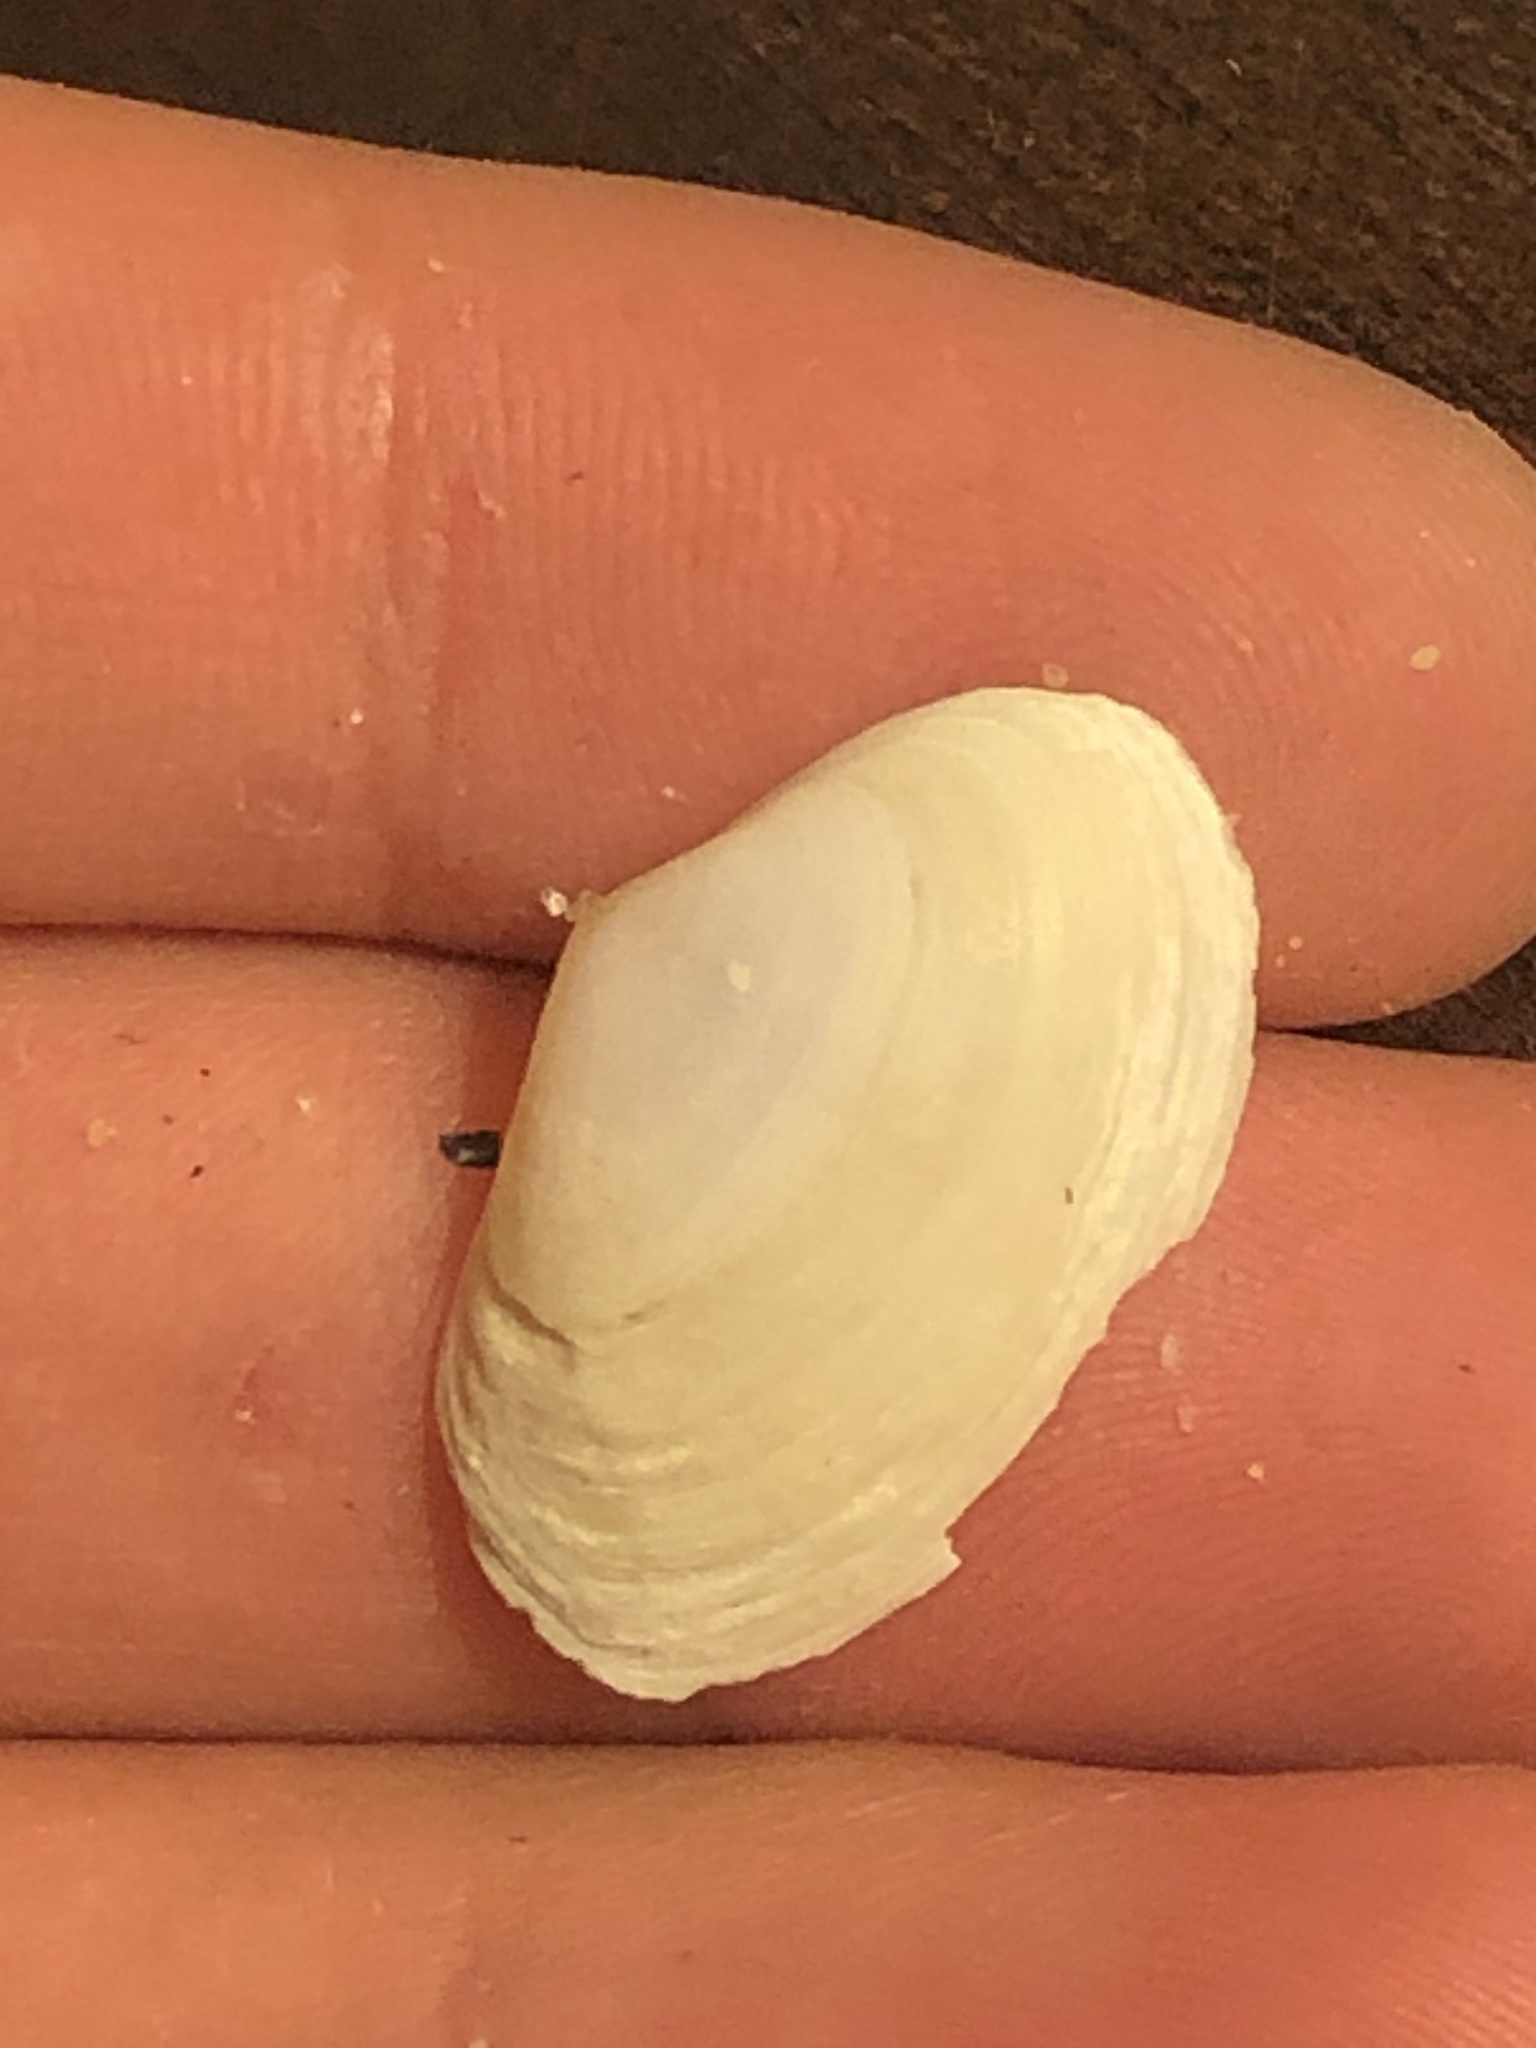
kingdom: Animalia
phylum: Mollusca
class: Bivalvia
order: Venerida
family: Mactridae
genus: Tresus
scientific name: Tresus nuttallii
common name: Pacific gaper clam
